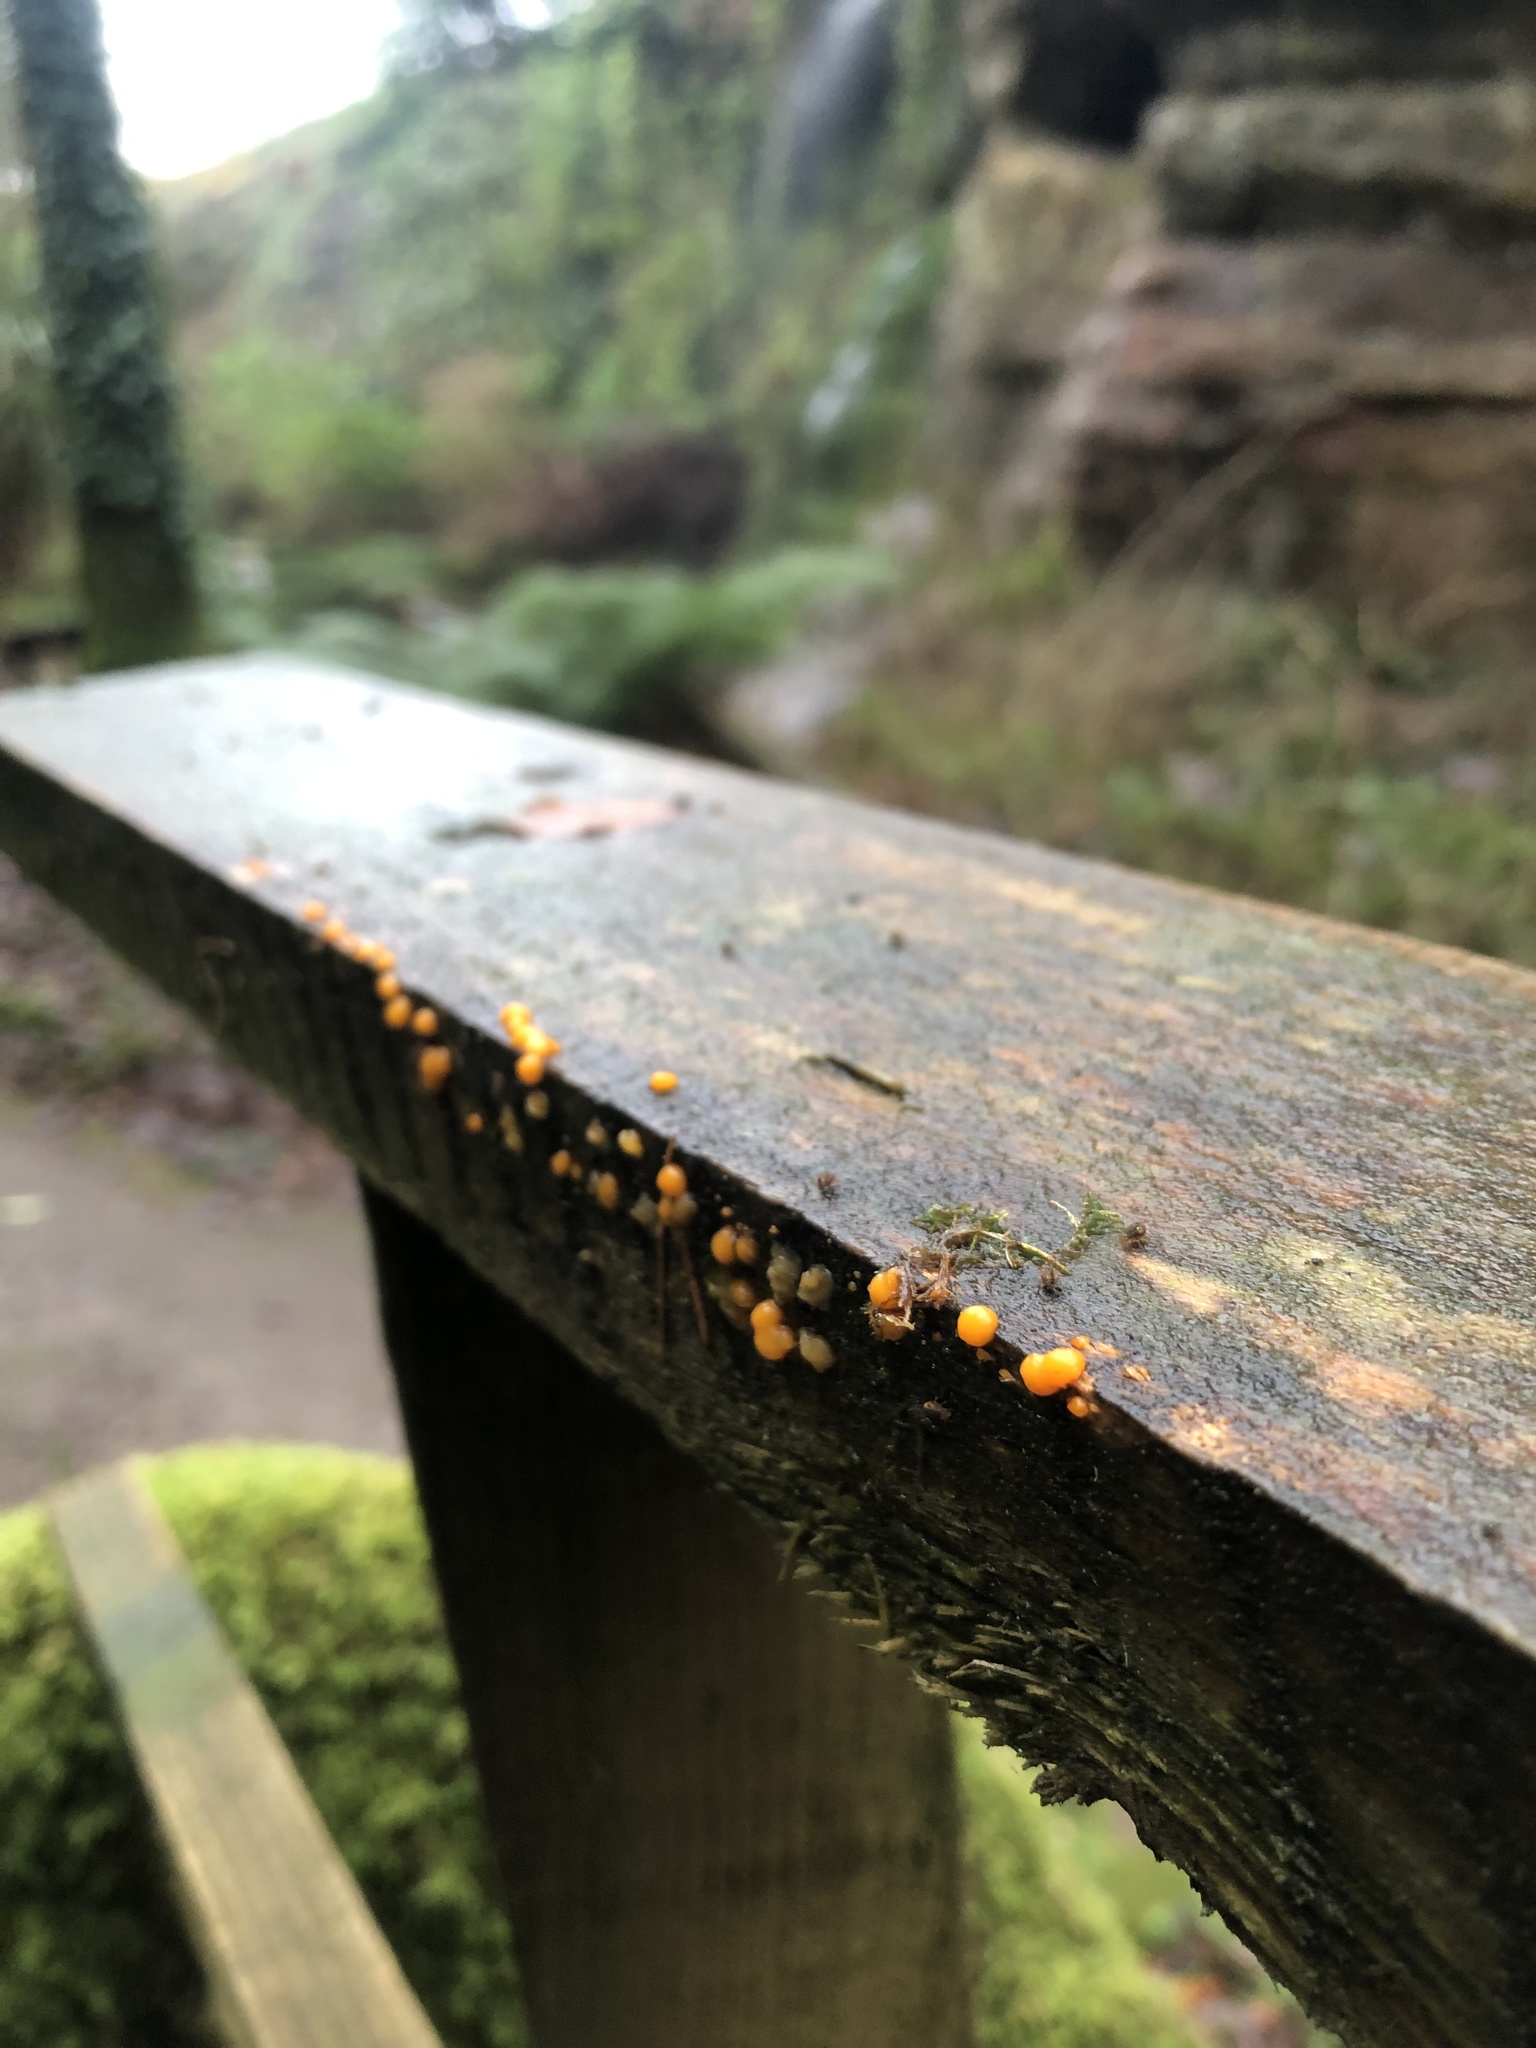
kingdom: Fungi
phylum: Basidiomycota
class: Dacrymycetes
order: Dacrymycetales
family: Dacrymycetaceae
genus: Dacrymyces
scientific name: Dacrymyces stillatus
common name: Common jelly spot
